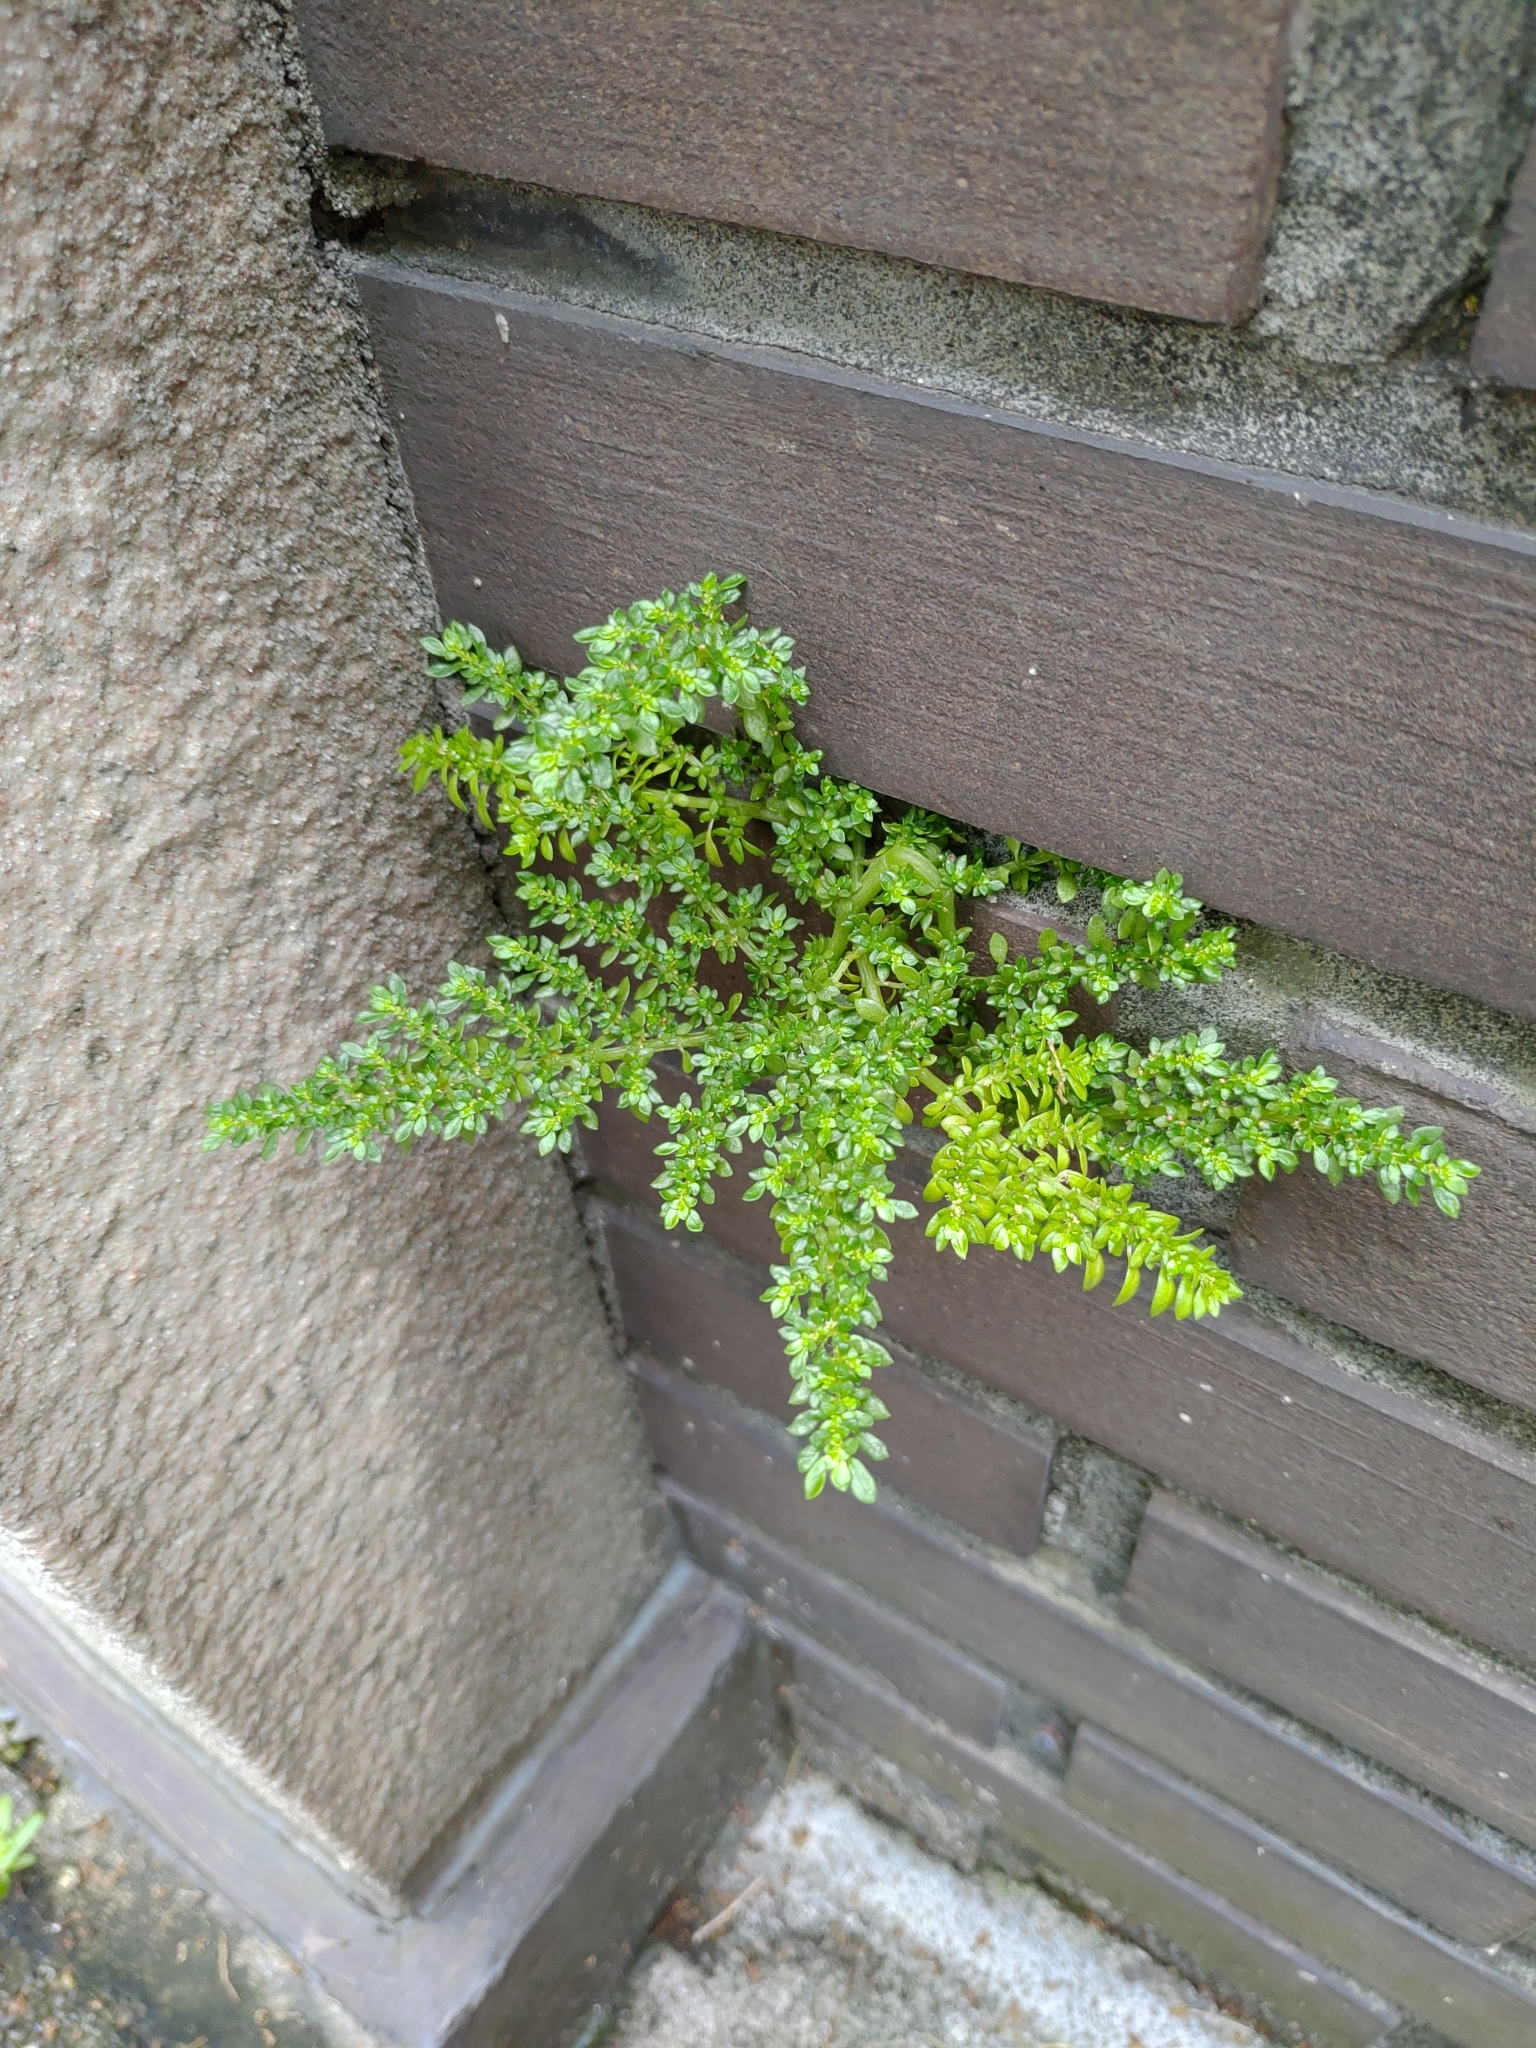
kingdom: Plantae
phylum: Tracheophyta
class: Magnoliopsida
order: Rosales
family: Urticaceae
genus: Pilea
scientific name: Pilea microphylla
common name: Artillery-plant
